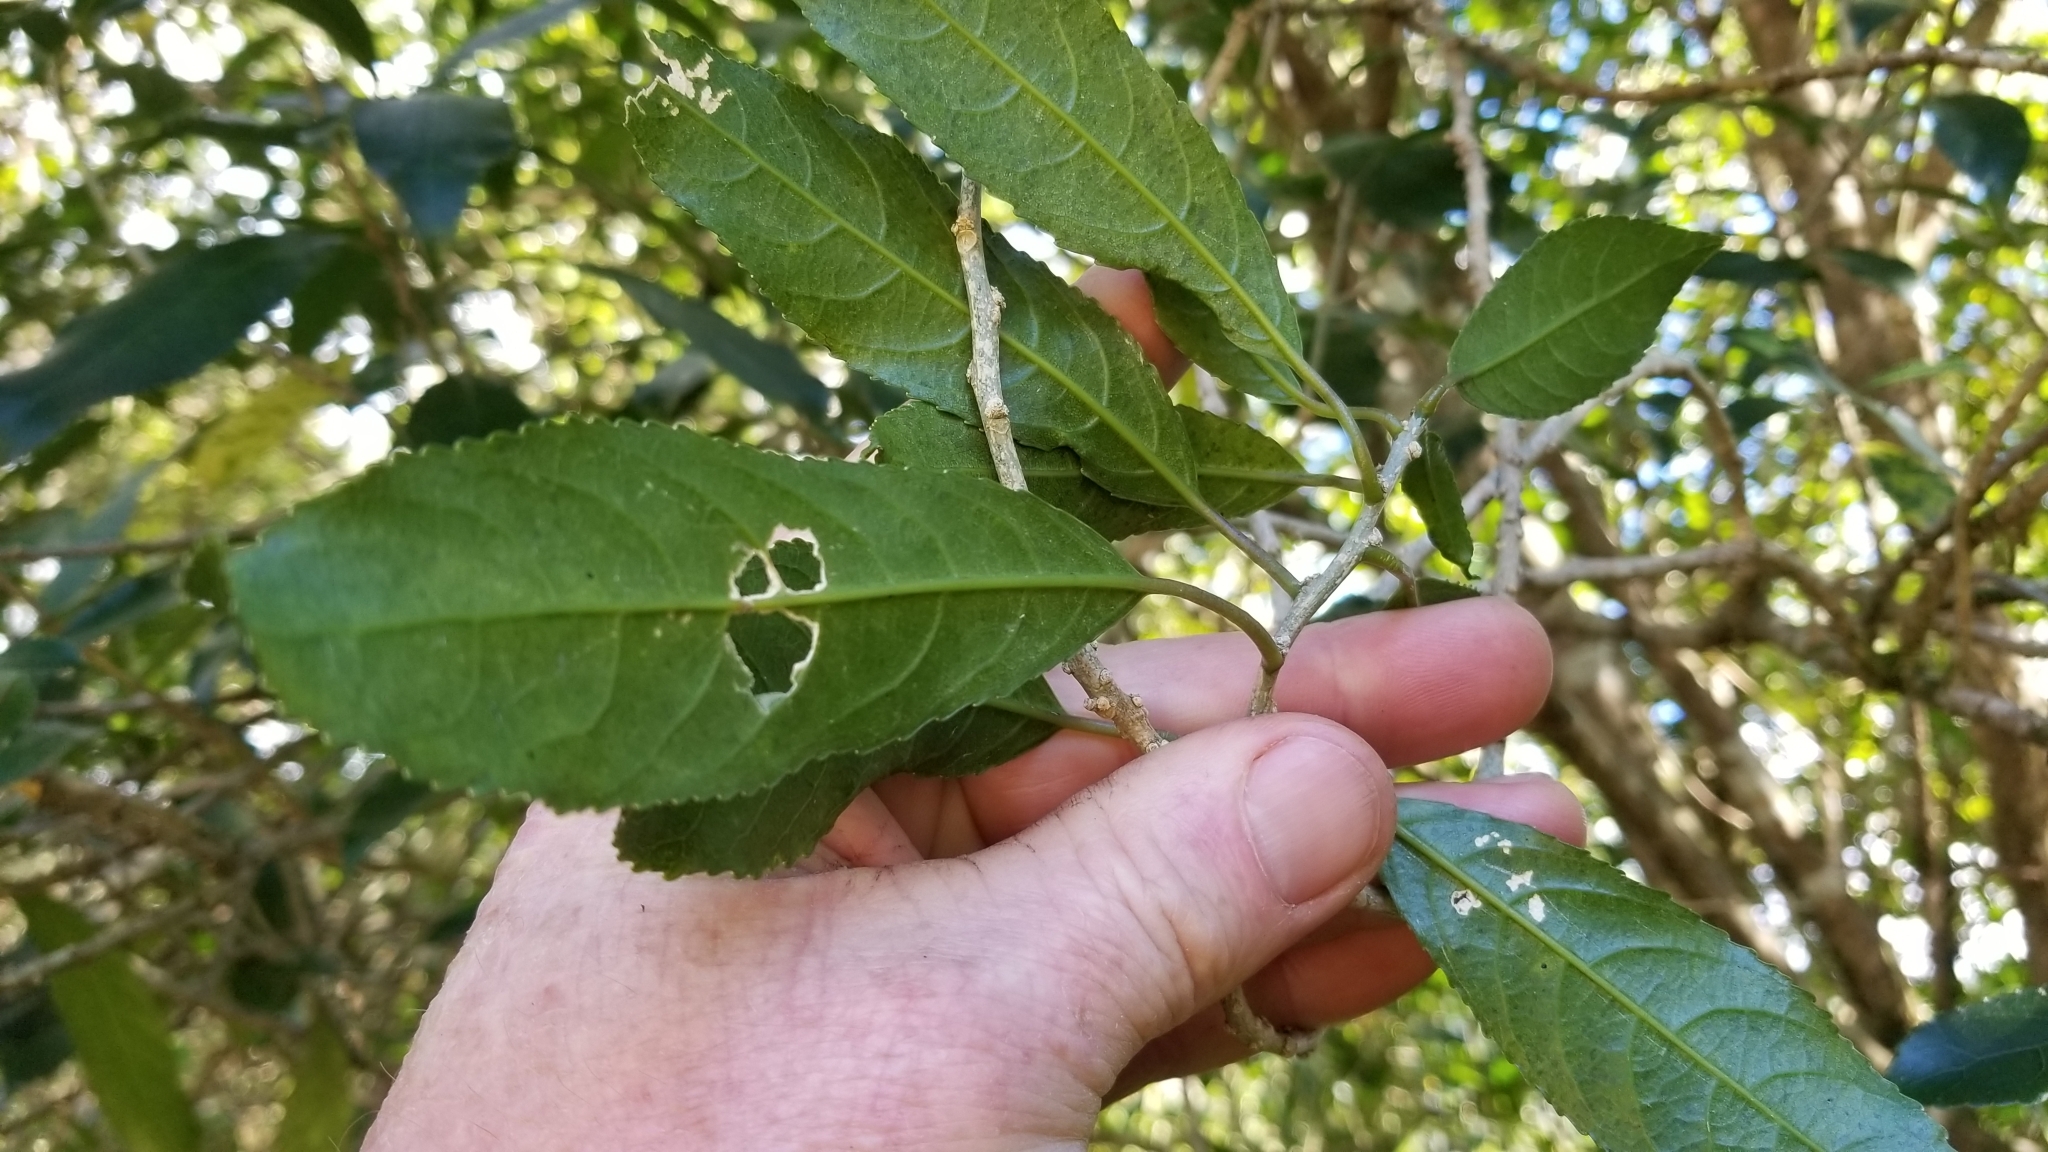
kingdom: Plantae
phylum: Tracheophyta
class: Magnoliopsida
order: Malpighiales
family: Violaceae
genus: Melicytus
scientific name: Melicytus ramiflorus
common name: Mahoe
